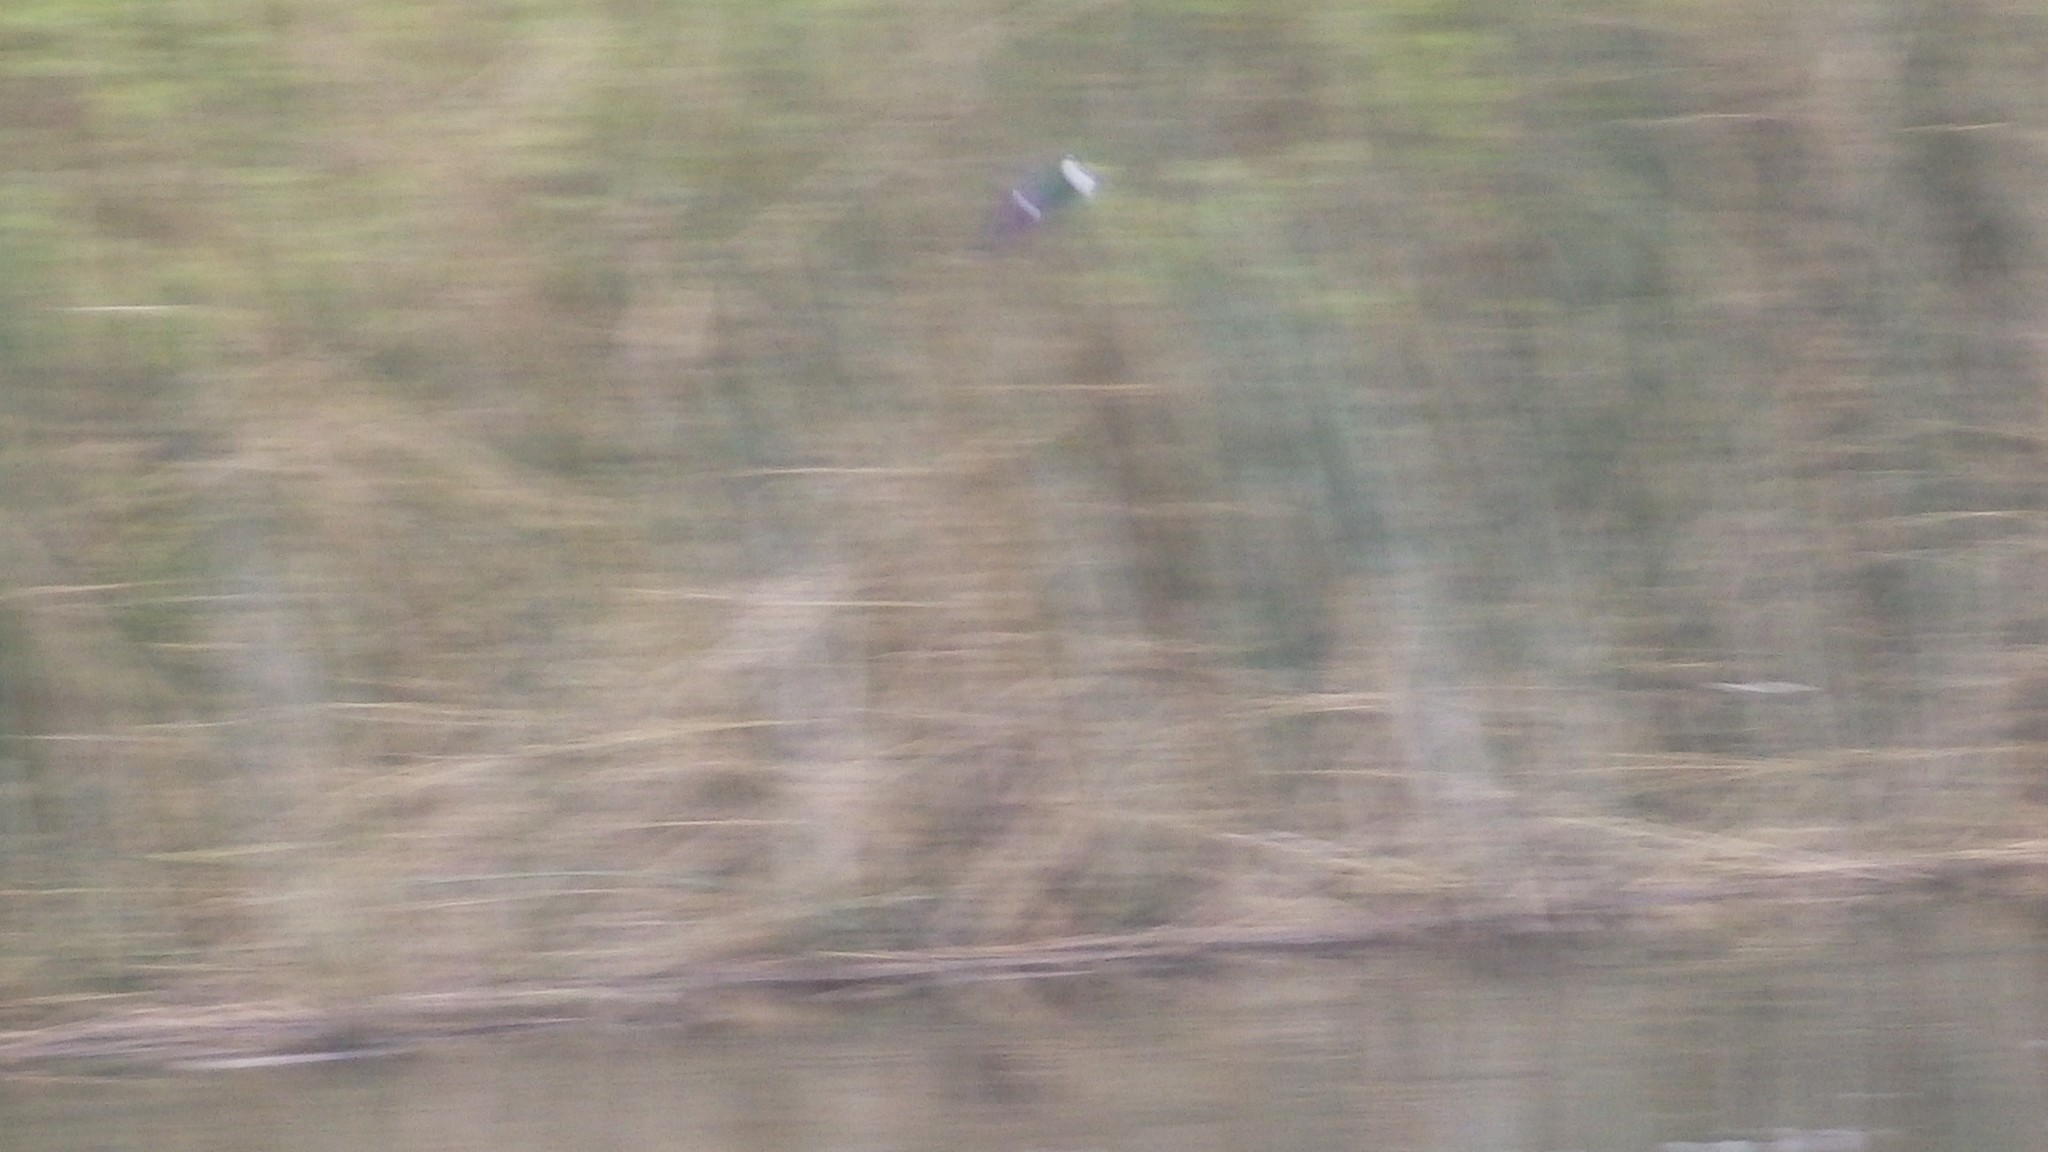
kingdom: Animalia
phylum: Chordata
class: Aves
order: Passeriformes
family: Hirundinidae
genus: Tachycineta
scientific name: Tachycineta thalassina
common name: Violet-green swallow
